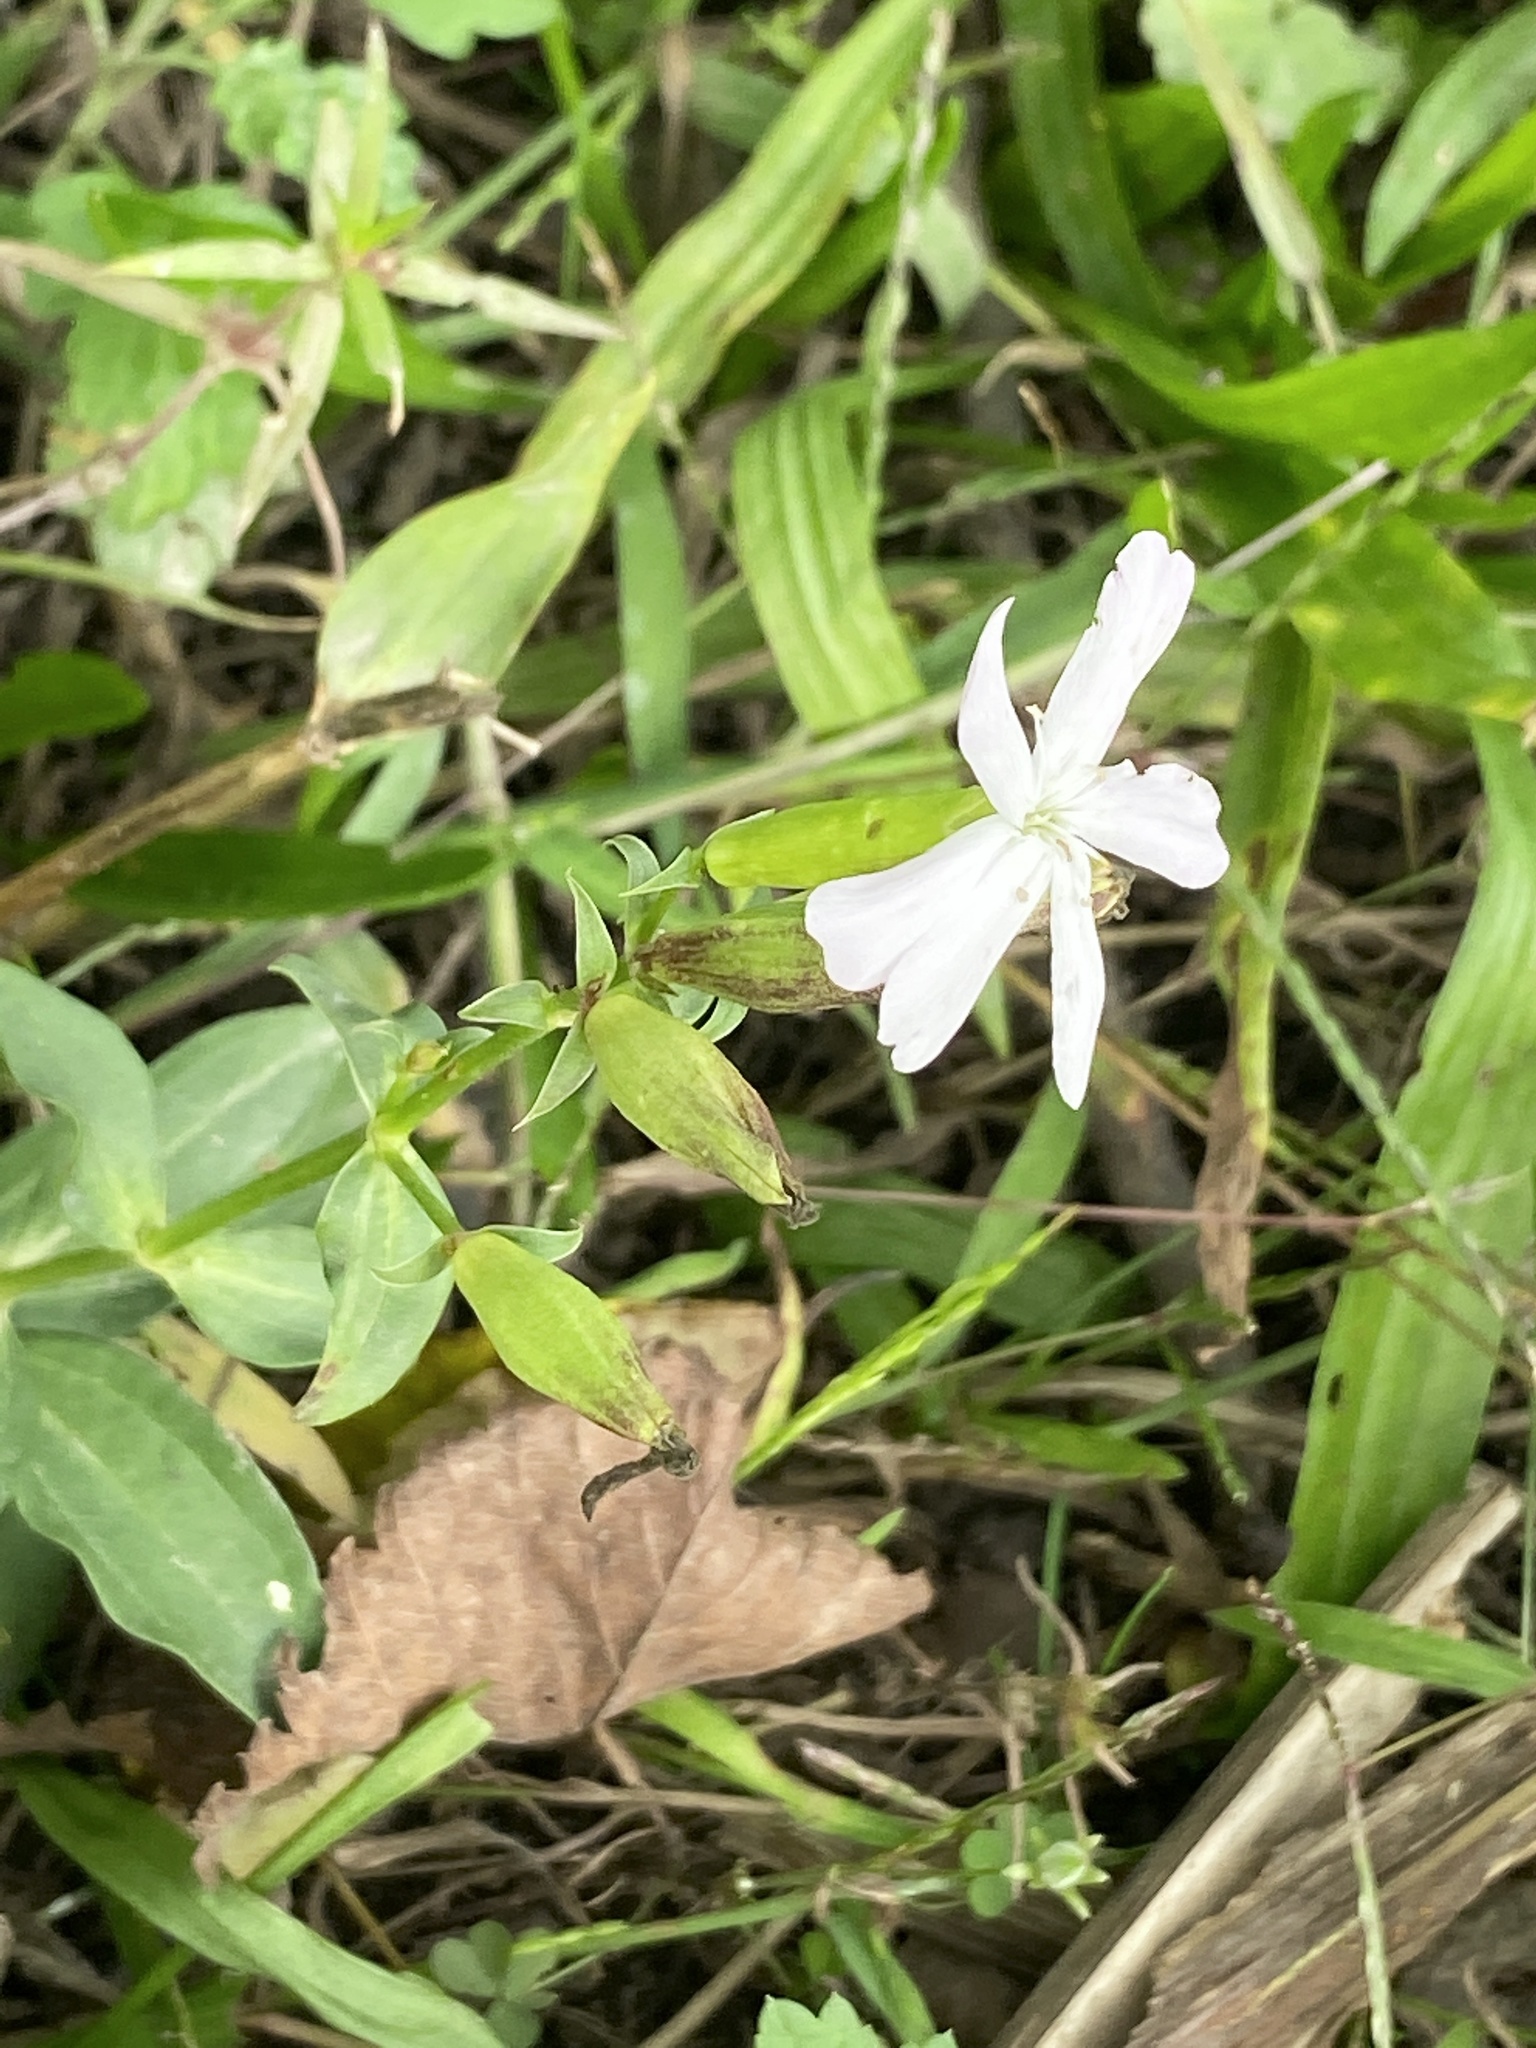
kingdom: Plantae
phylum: Tracheophyta
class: Magnoliopsida
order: Caryophyllales
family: Caryophyllaceae
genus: Saponaria
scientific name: Saponaria officinalis
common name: Soapwort
